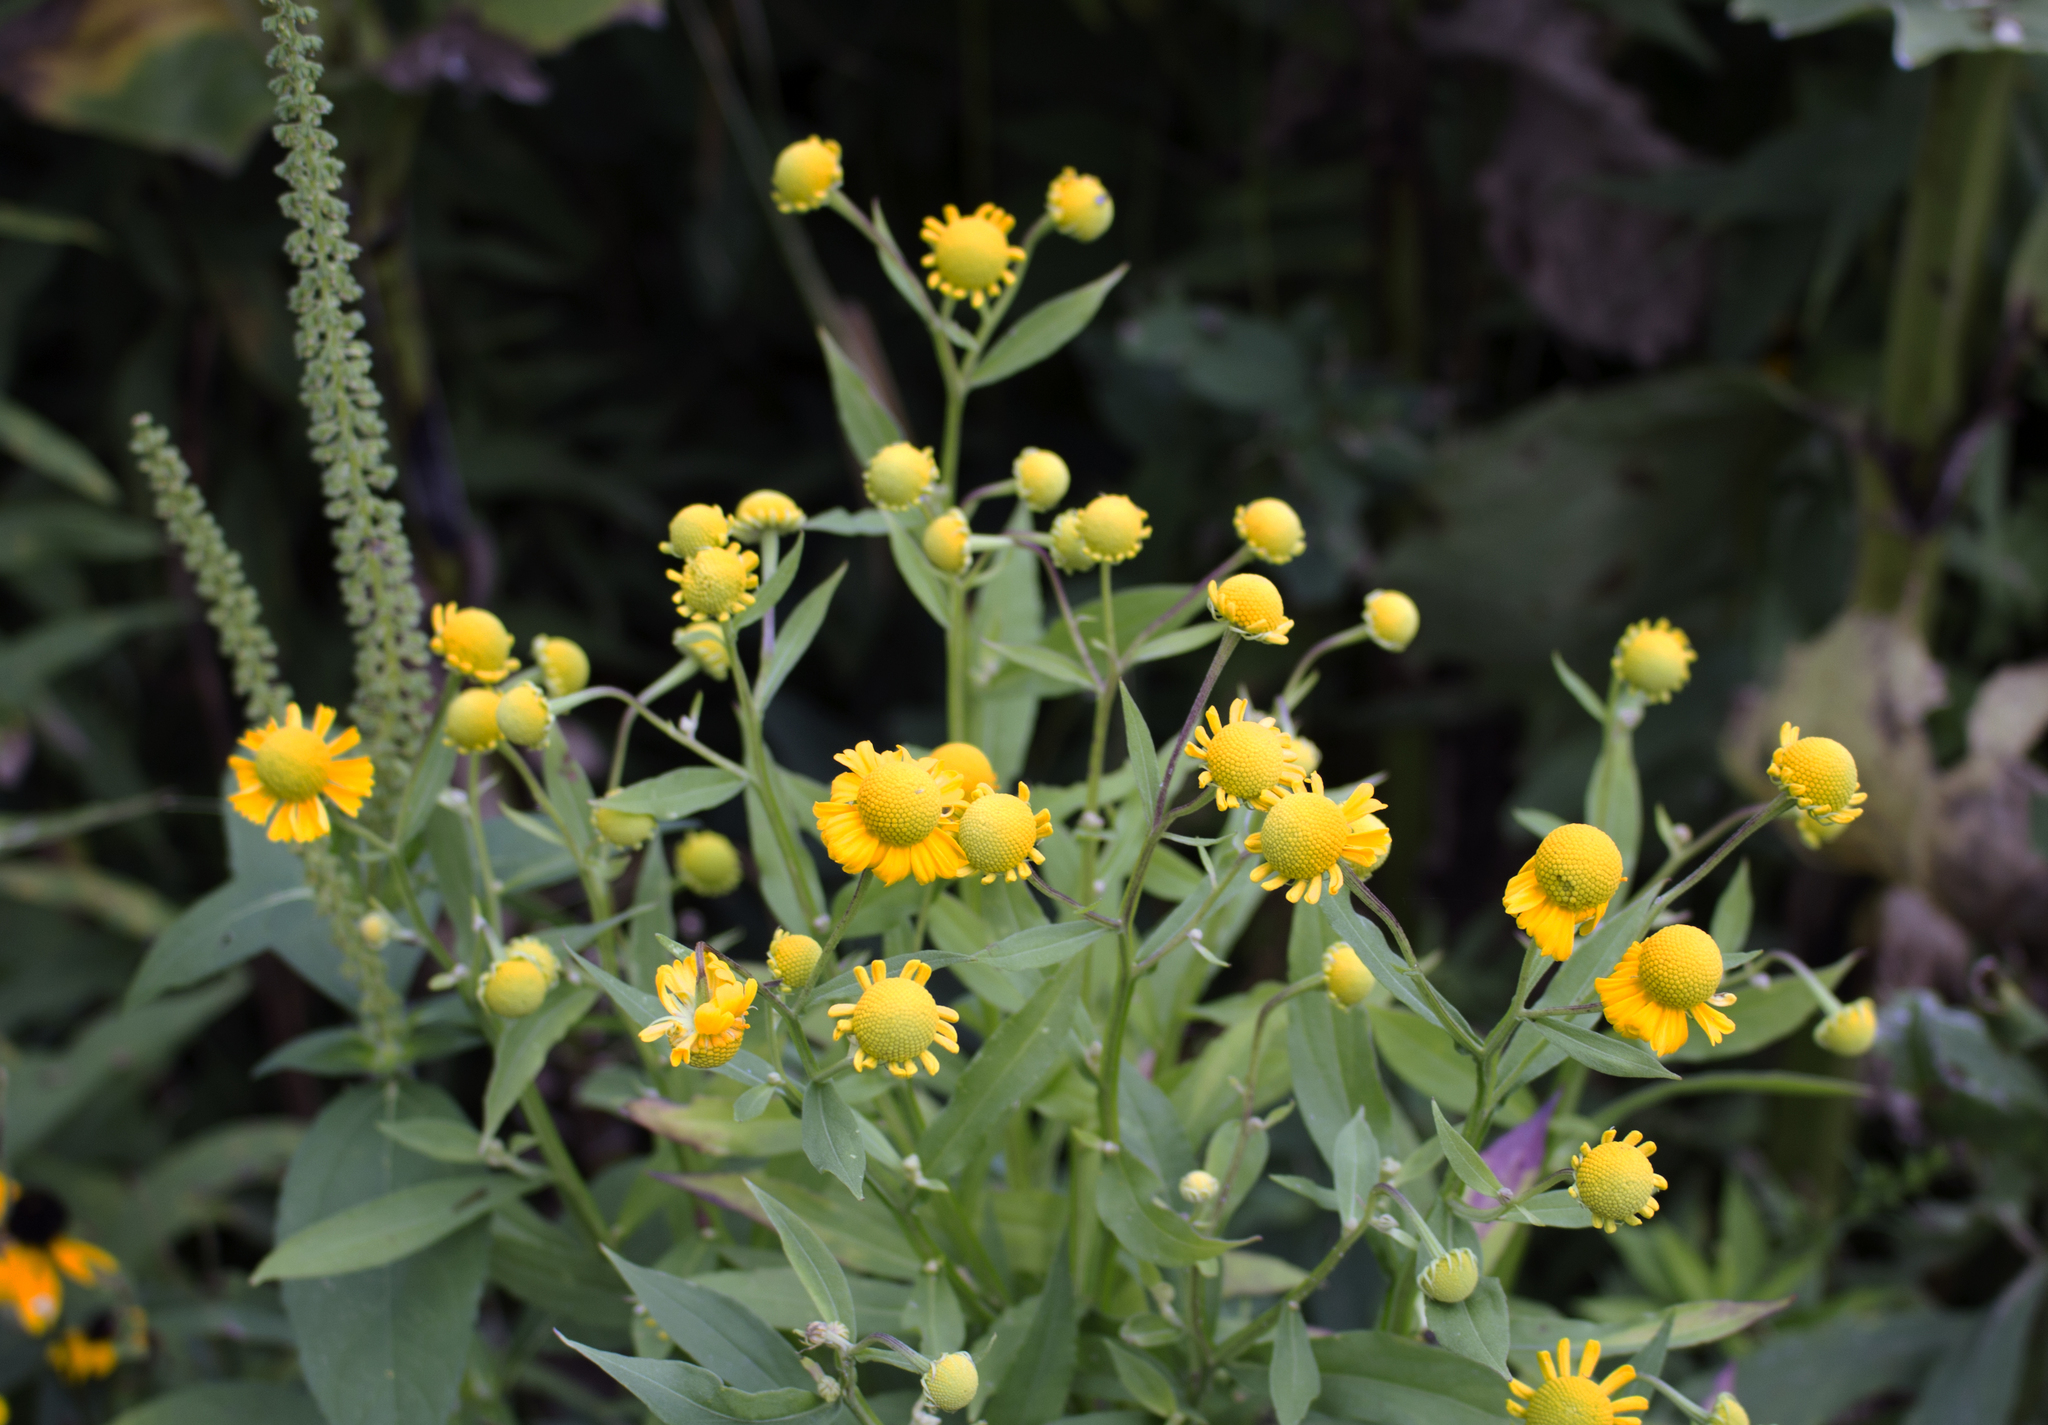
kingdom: Plantae
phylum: Tracheophyta
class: Magnoliopsida
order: Asterales
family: Asteraceae
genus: Helenium
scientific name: Helenium autumnale
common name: Sneezeweed
